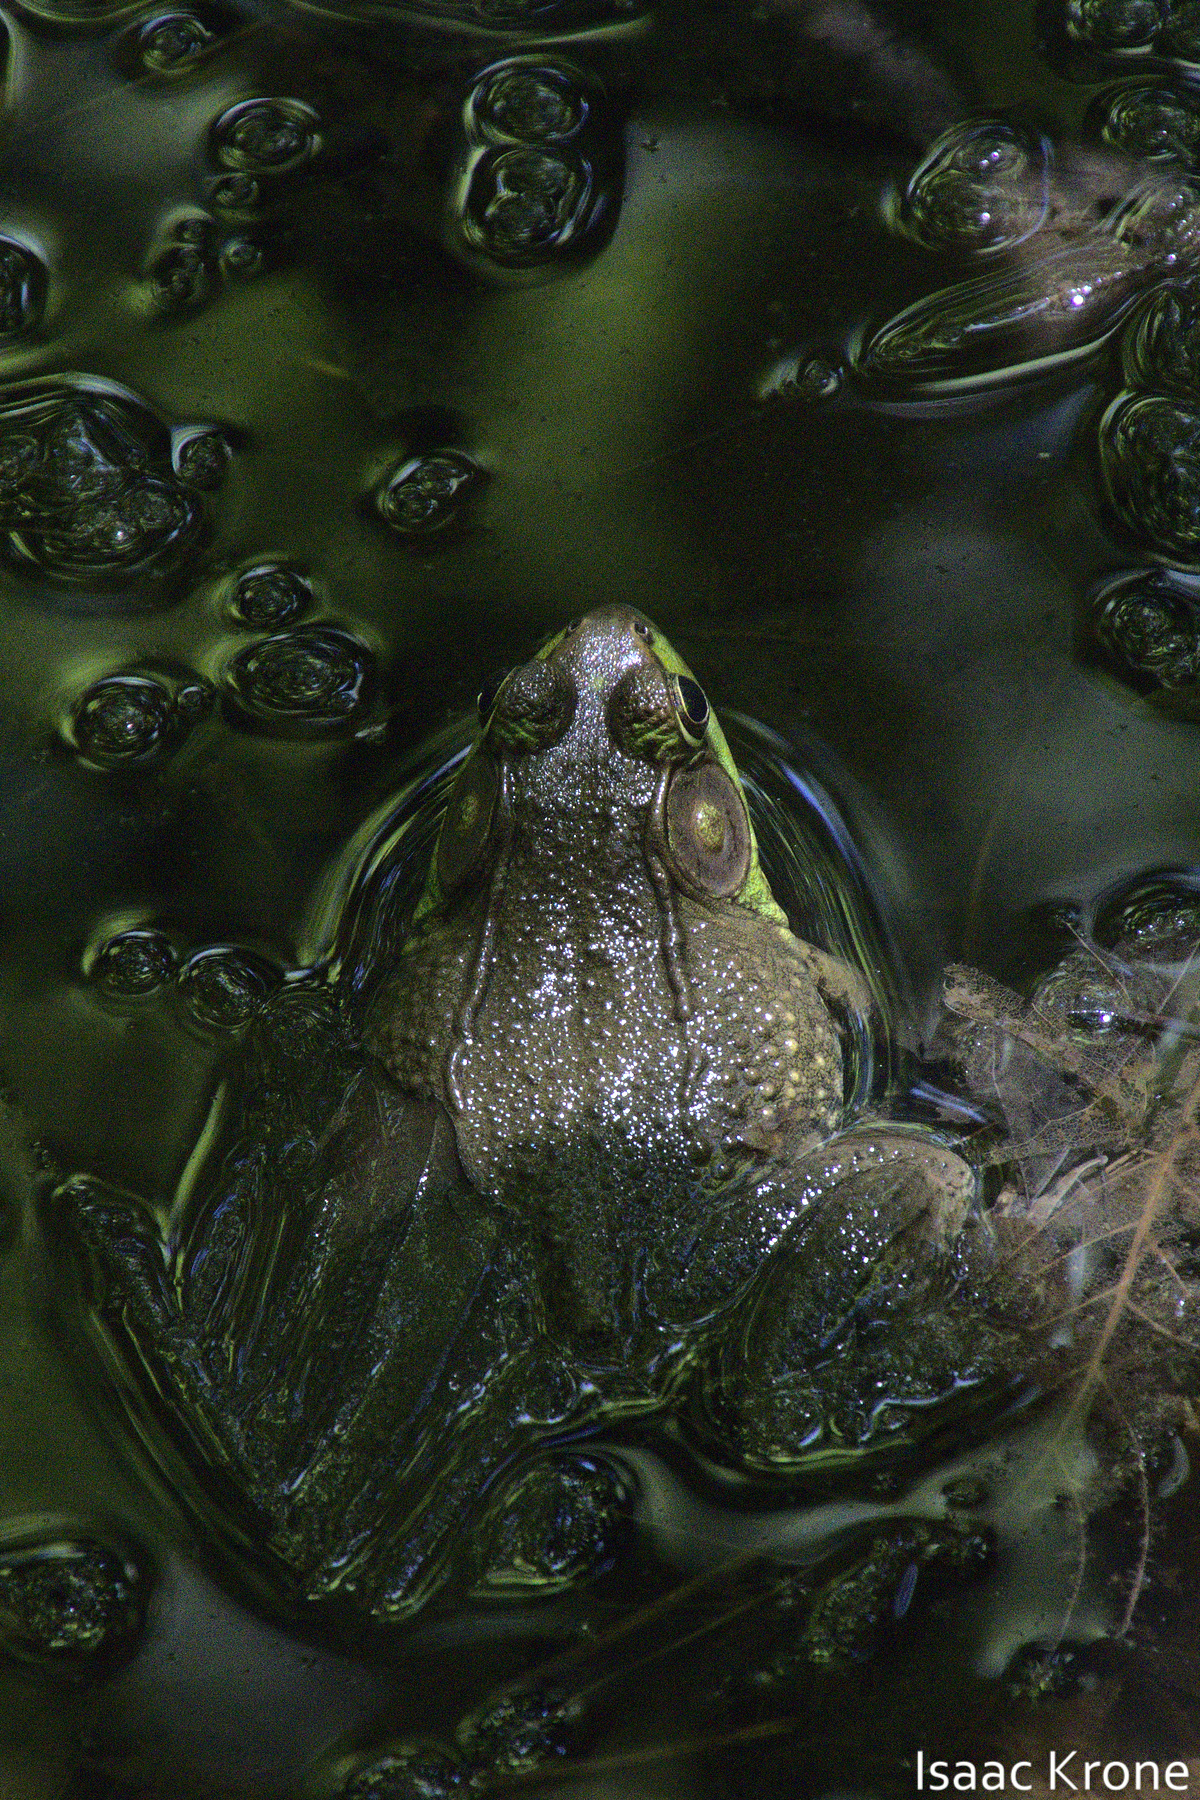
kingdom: Animalia
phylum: Chordata
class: Amphibia
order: Anura
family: Ranidae
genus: Lithobates
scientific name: Lithobates clamitans
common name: Green frog
